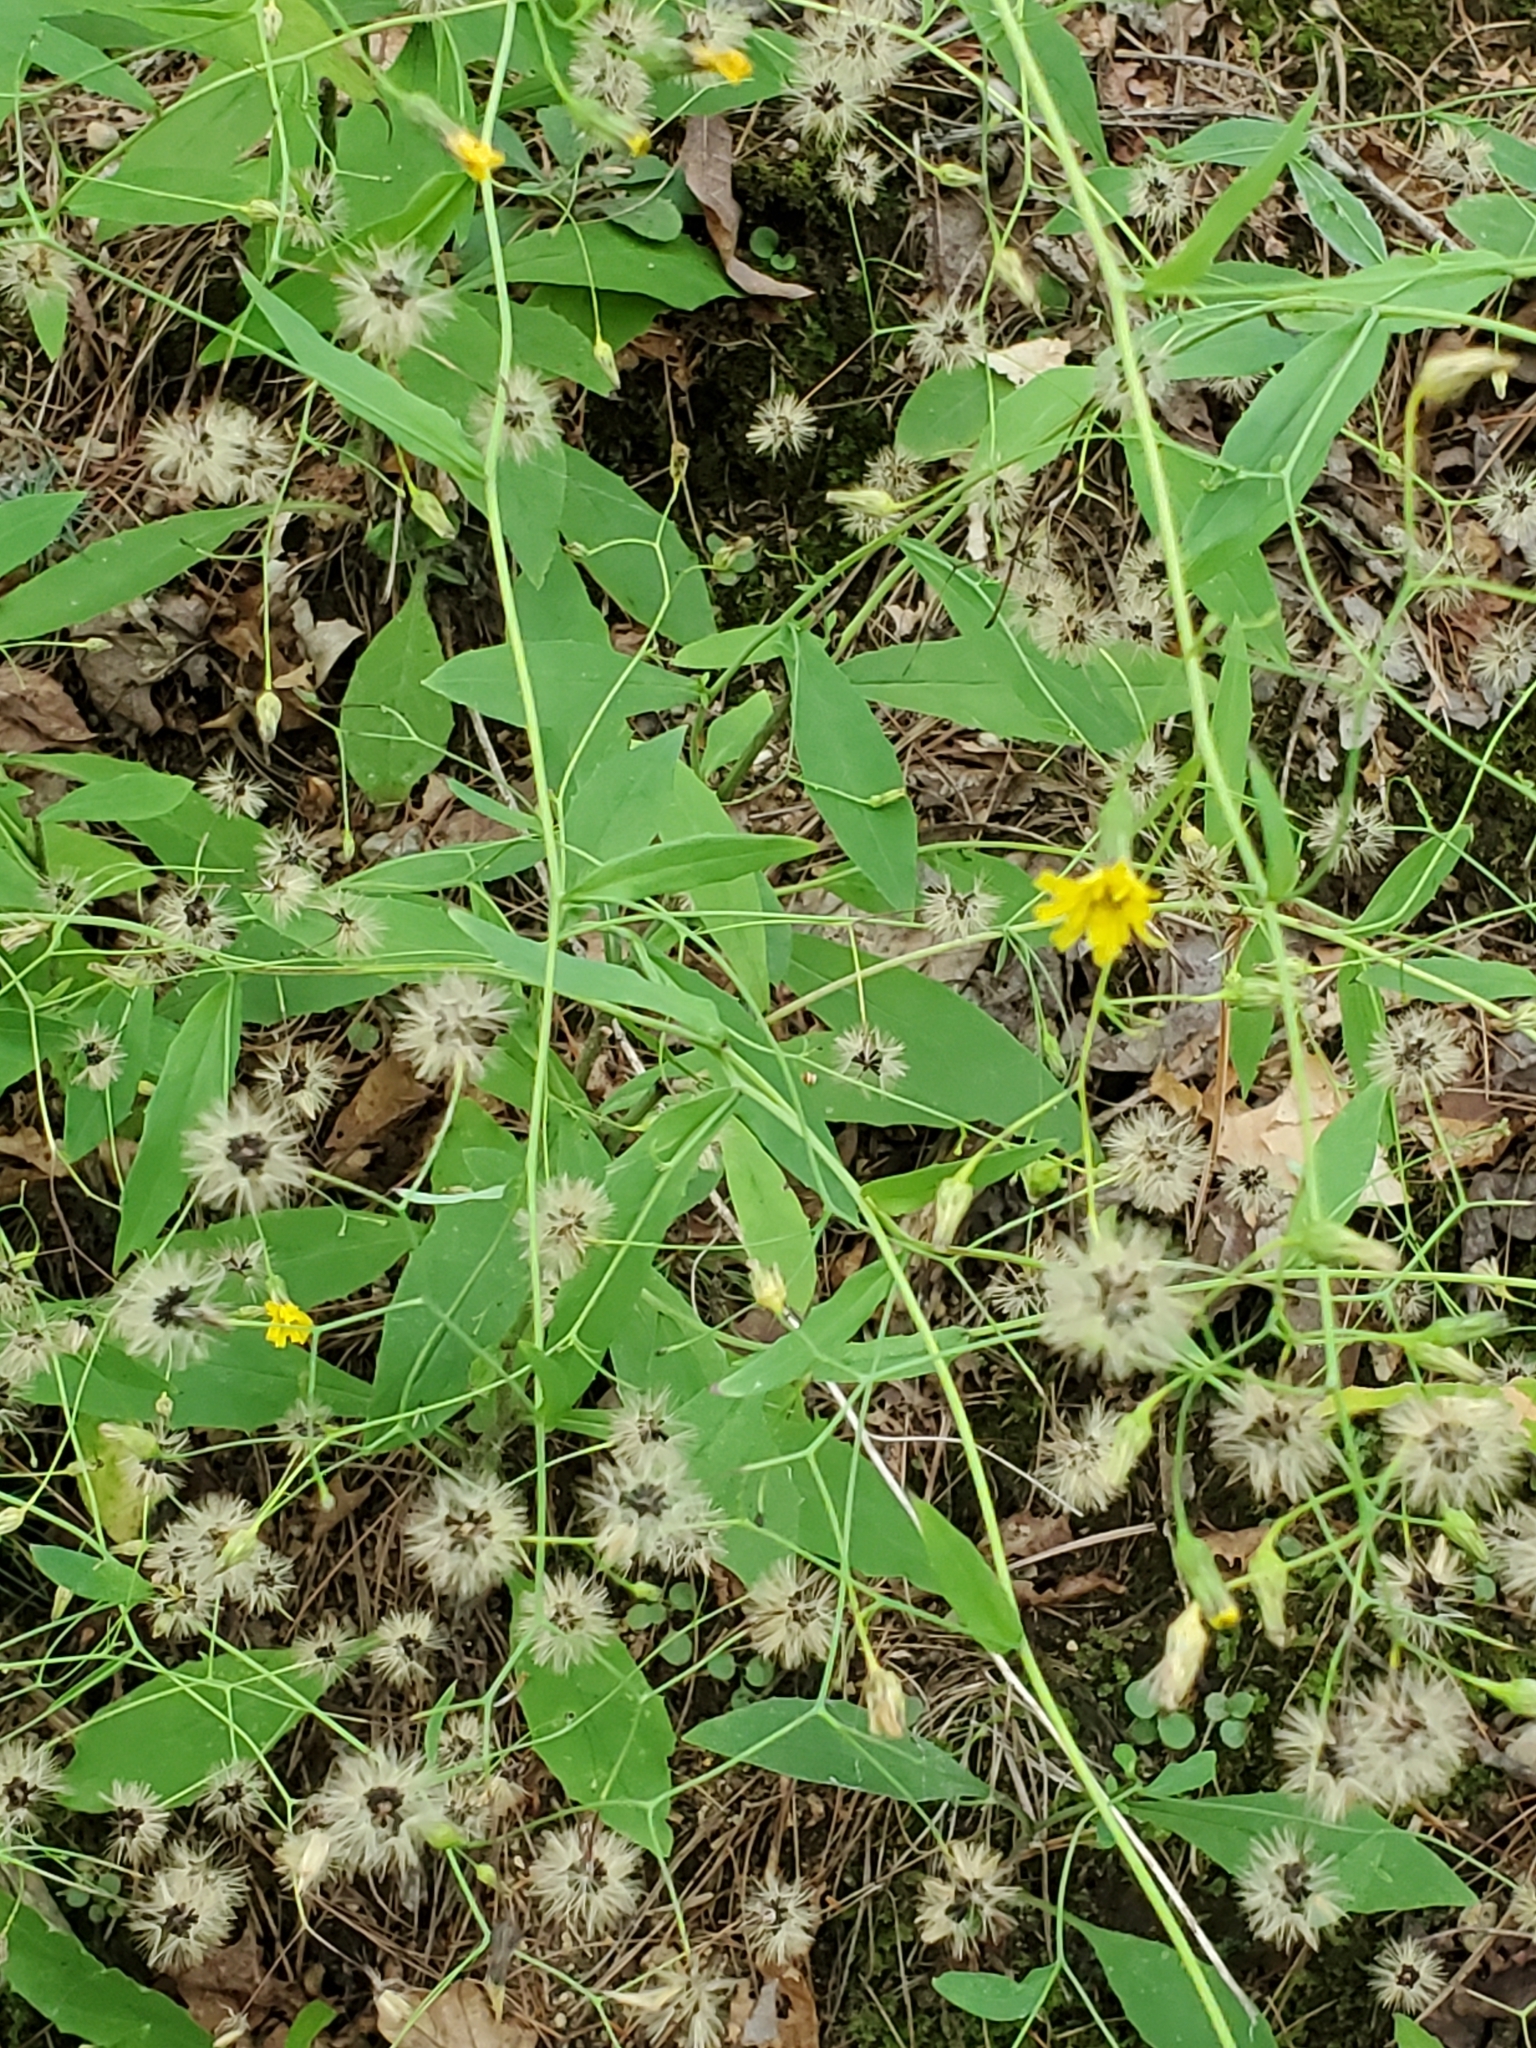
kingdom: Plantae
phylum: Tracheophyta
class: Magnoliopsida
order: Asterales
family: Asteraceae
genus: Hieracium
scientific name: Hieracium paniculatum
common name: Allegheny hawkweed
